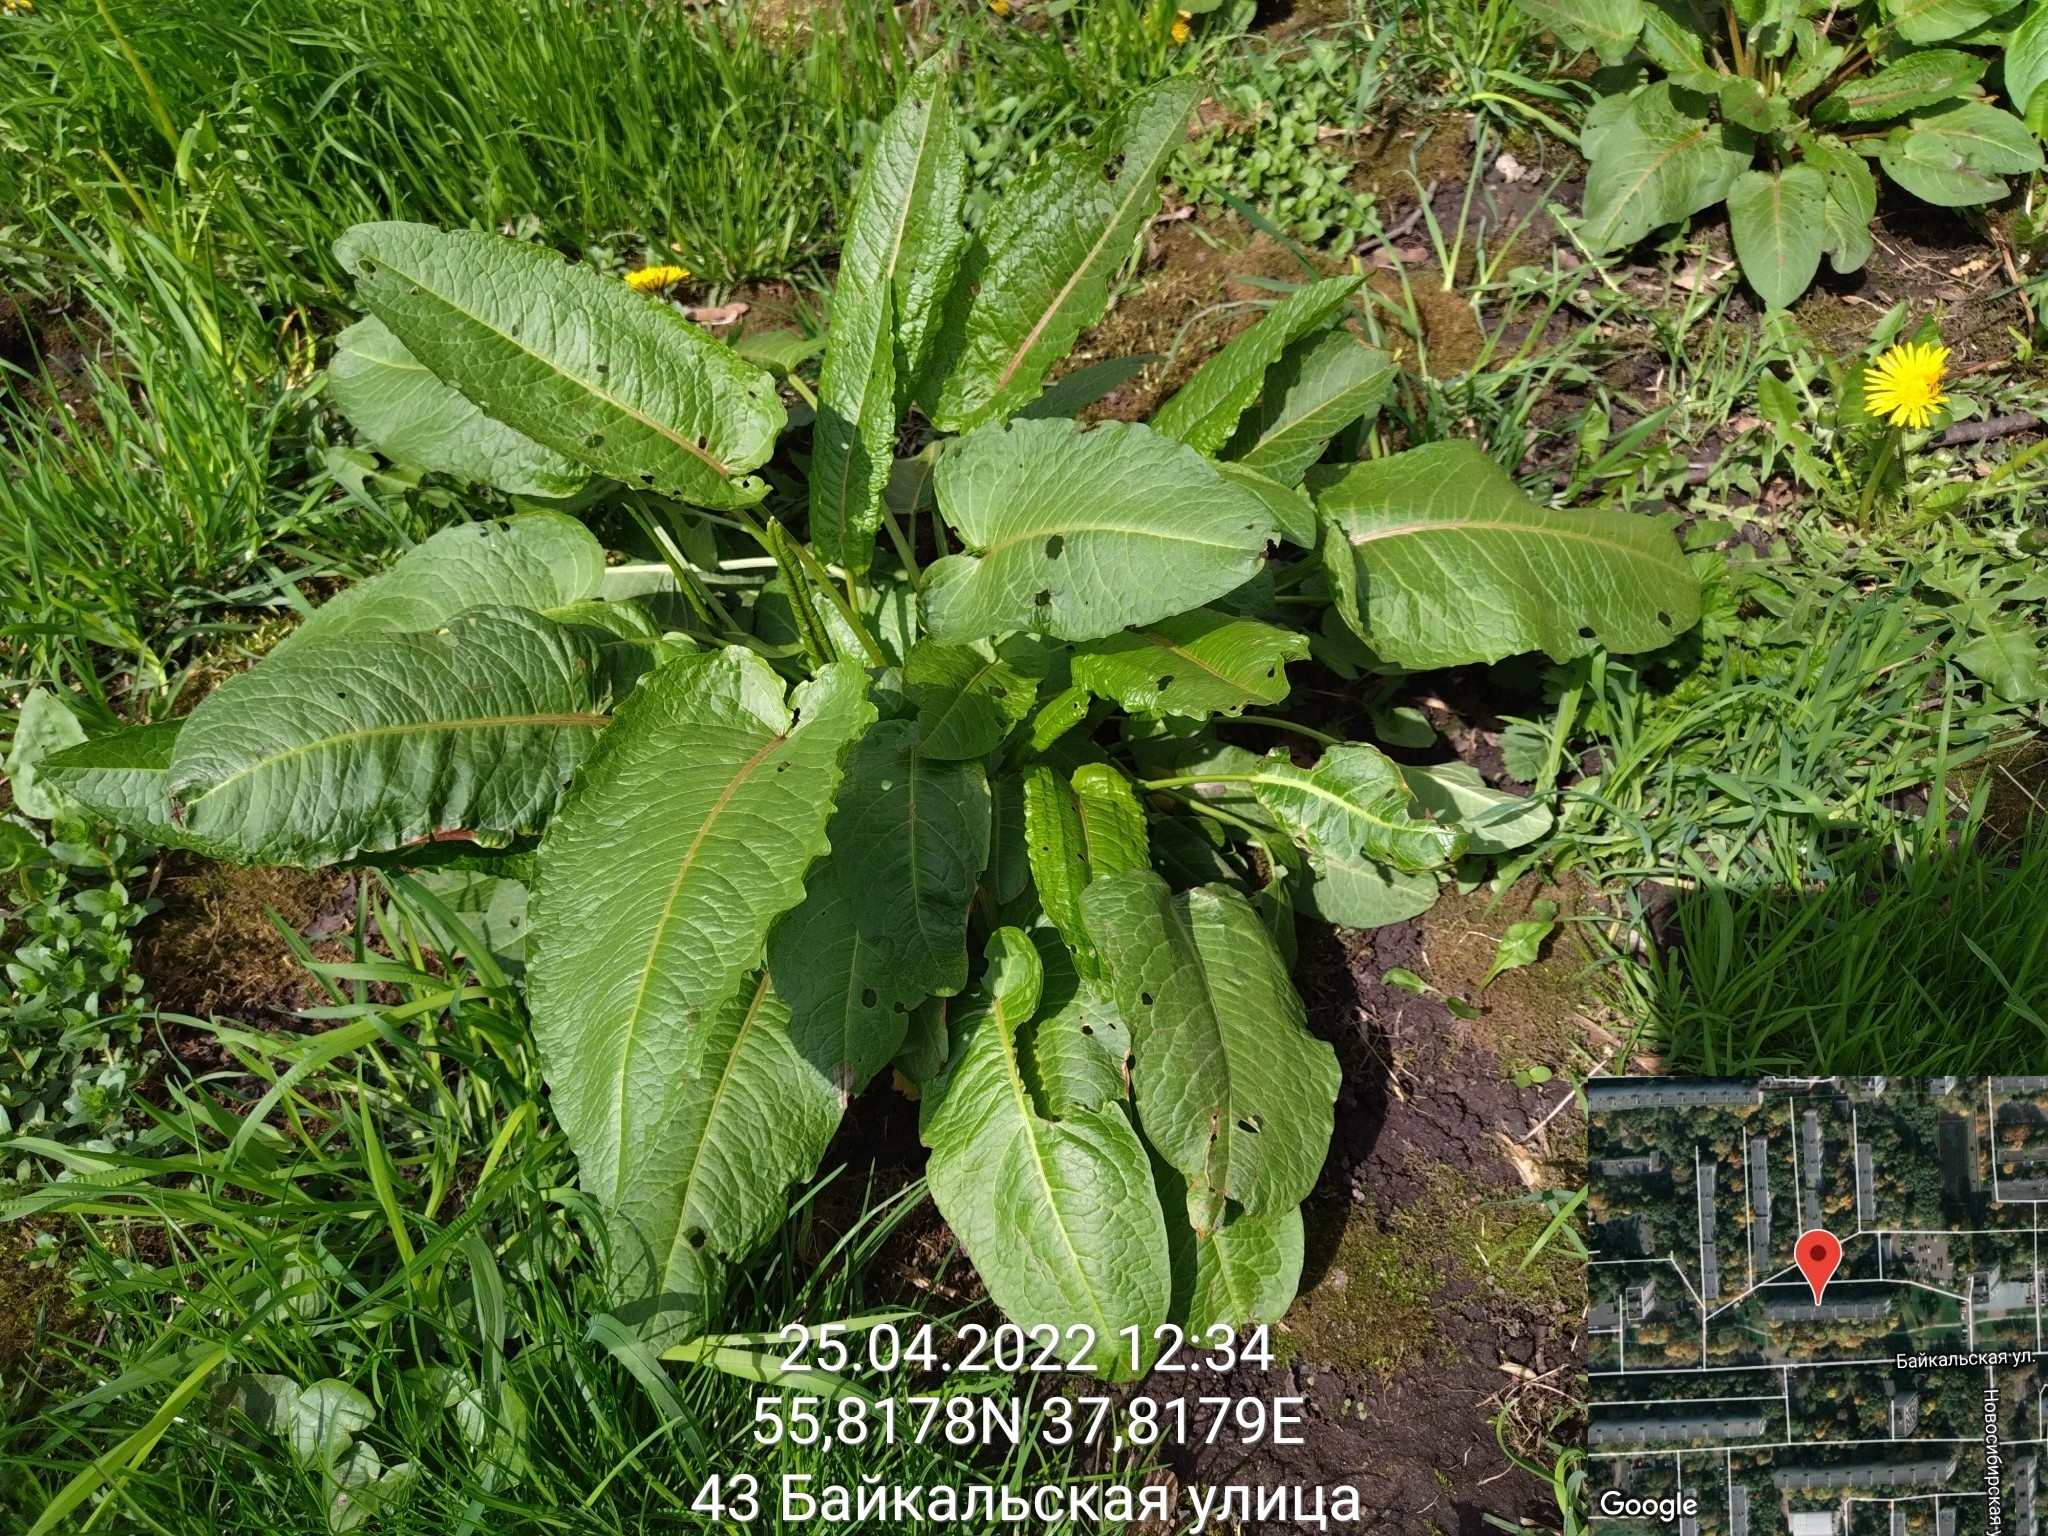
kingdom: Plantae
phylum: Tracheophyta
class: Magnoliopsida
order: Caryophyllales
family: Polygonaceae
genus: Rumex
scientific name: Rumex obtusifolius
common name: Bitter dock
